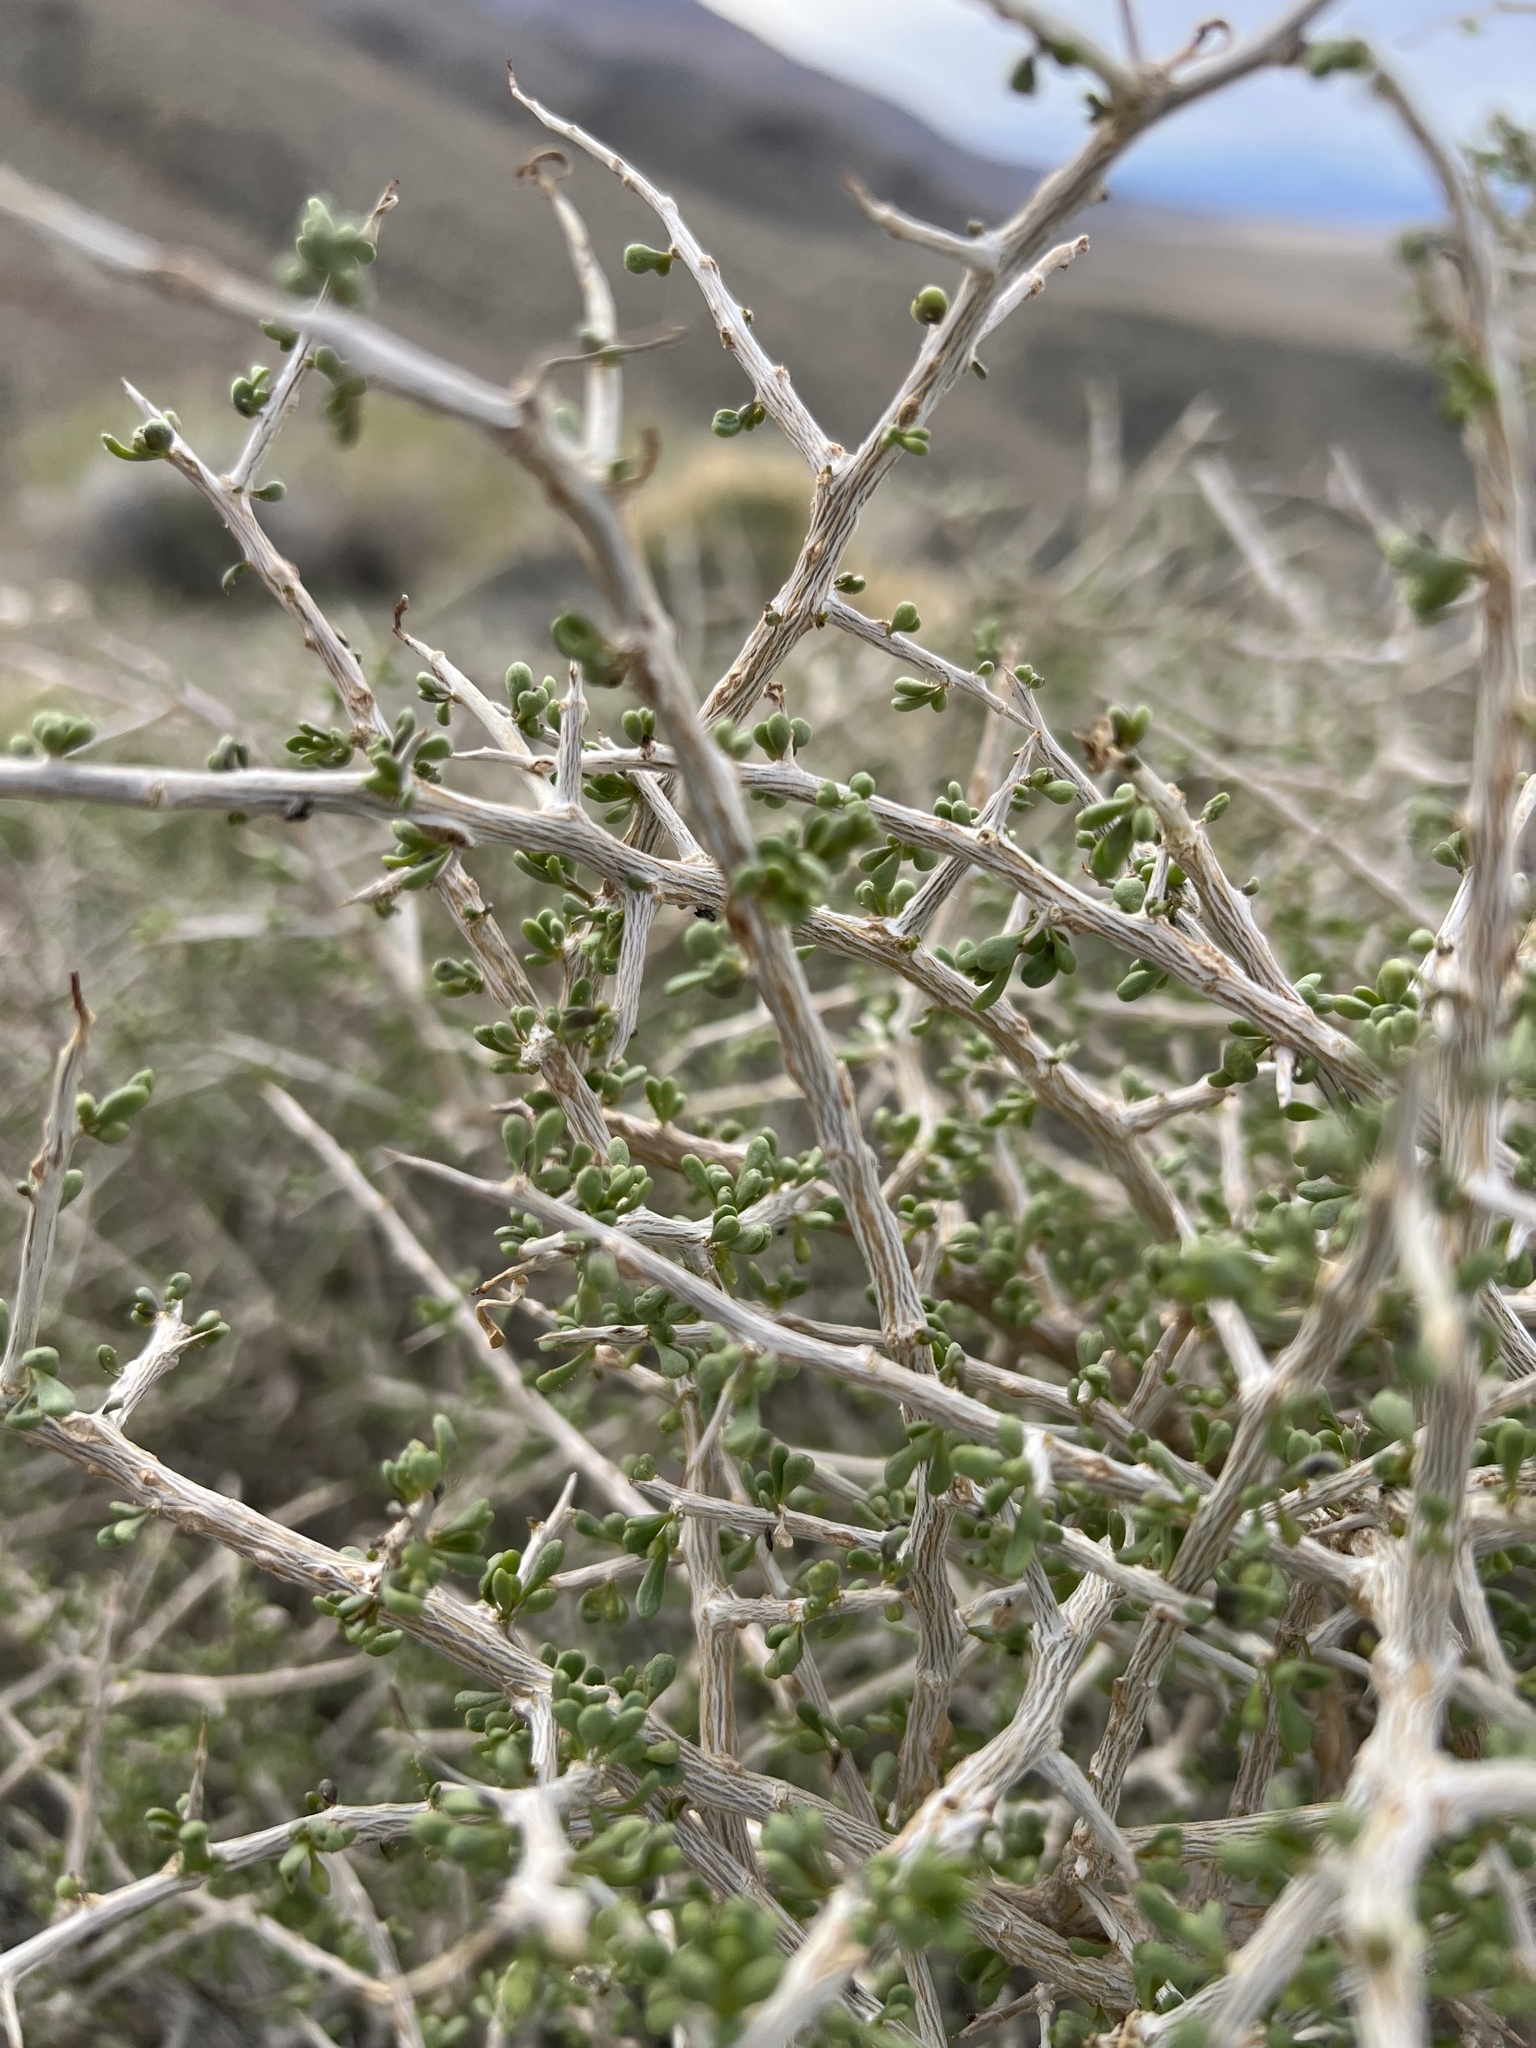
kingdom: Plantae
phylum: Tracheophyta
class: Magnoliopsida
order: Solanales
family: Solanaceae
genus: Lycium
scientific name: Lycium andersonii
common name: Water-jacket
